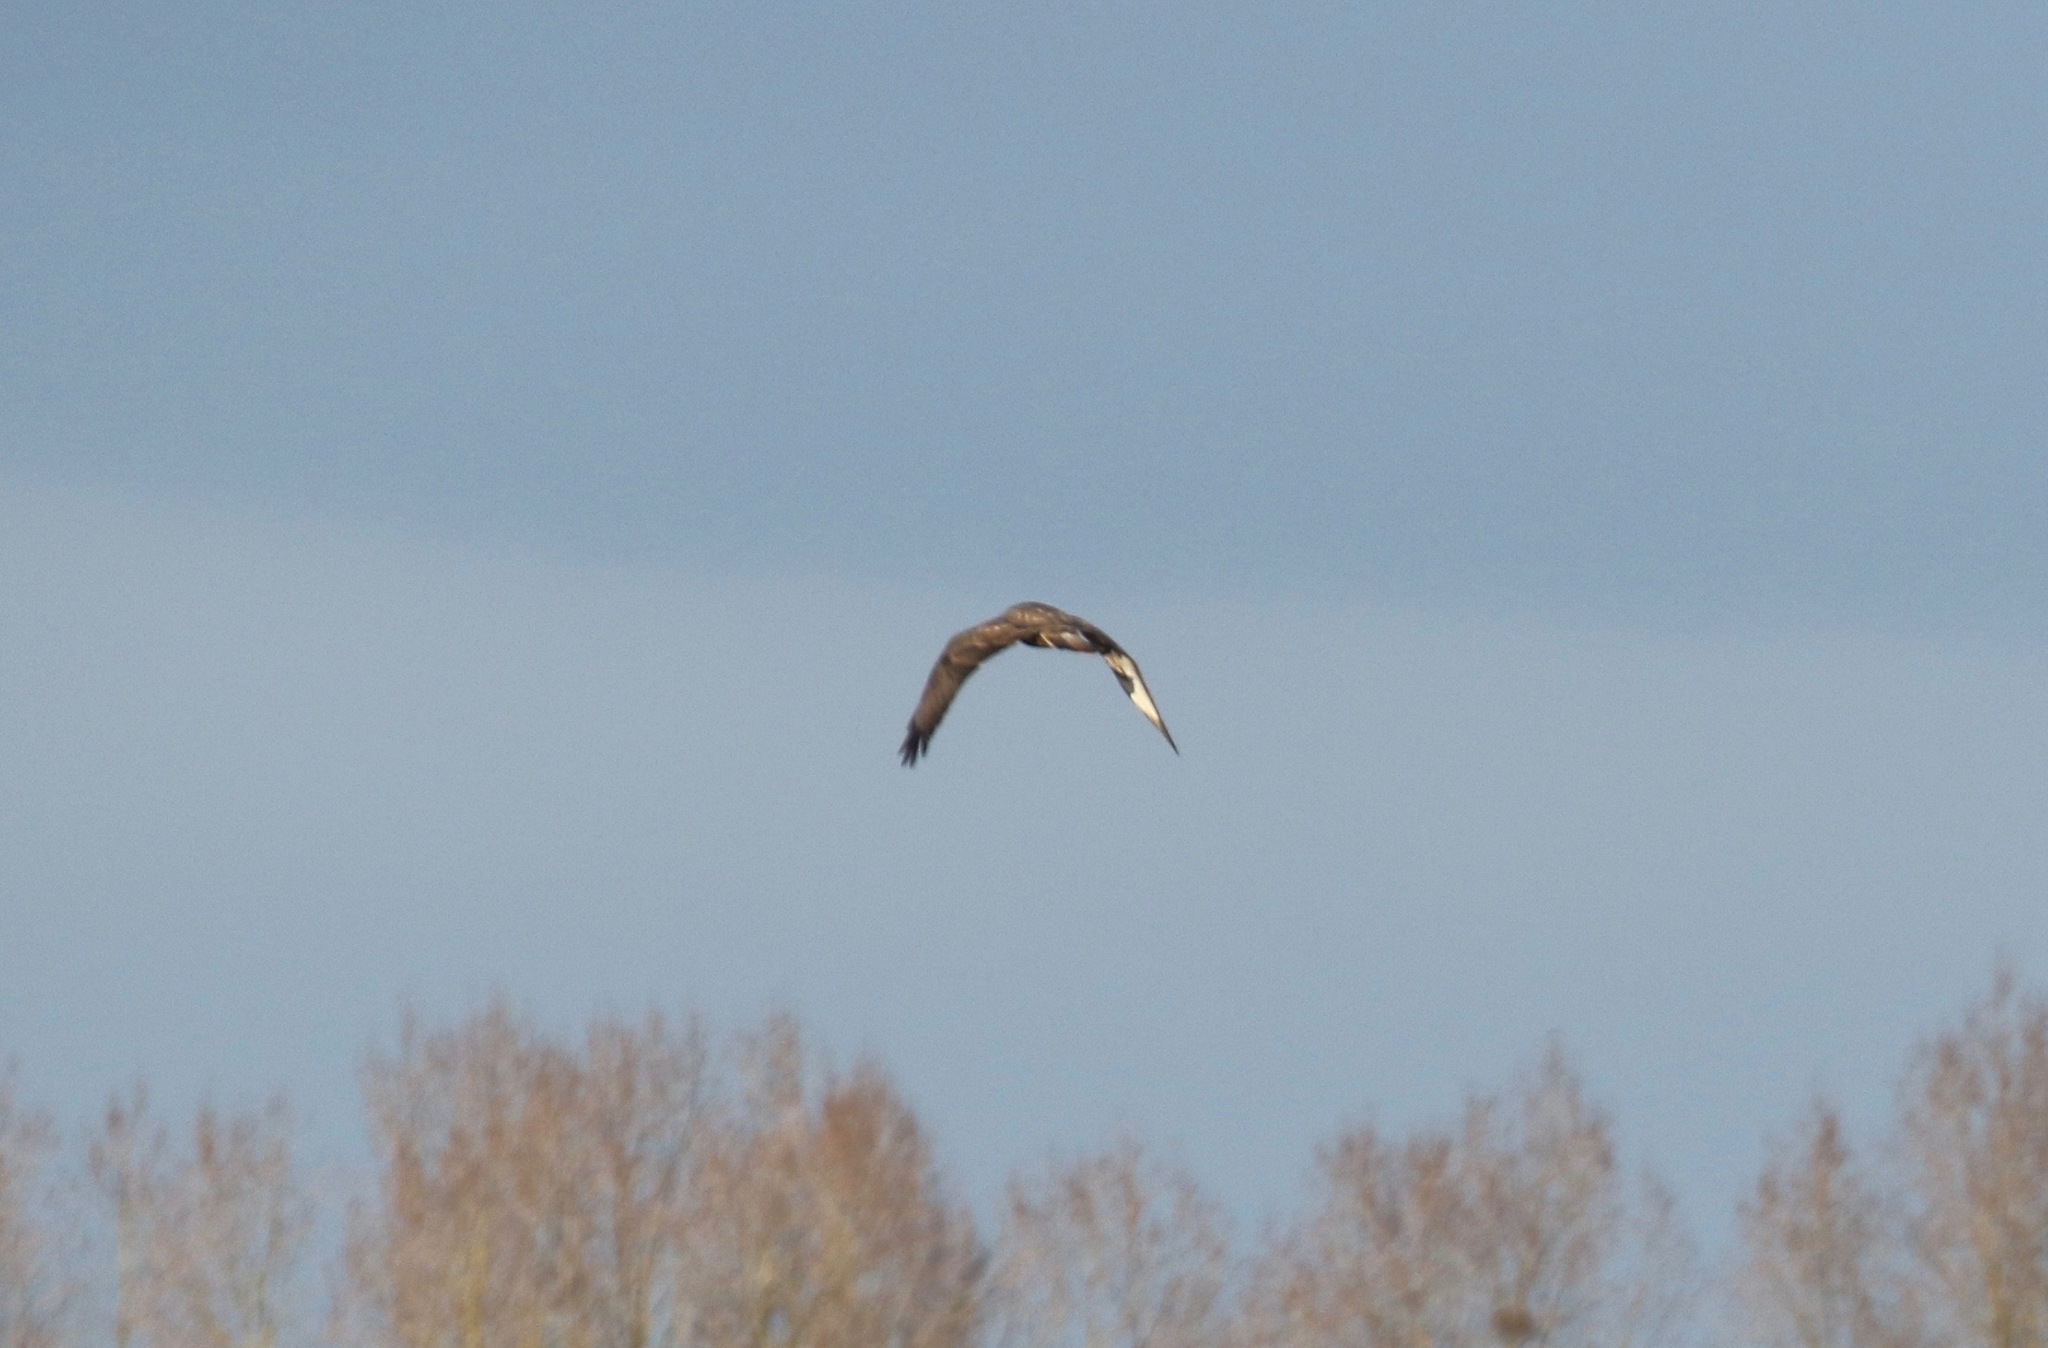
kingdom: Animalia
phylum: Chordata
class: Aves
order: Accipitriformes
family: Accipitridae
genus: Buteo
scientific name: Buteo buteo
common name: Common buzzard
